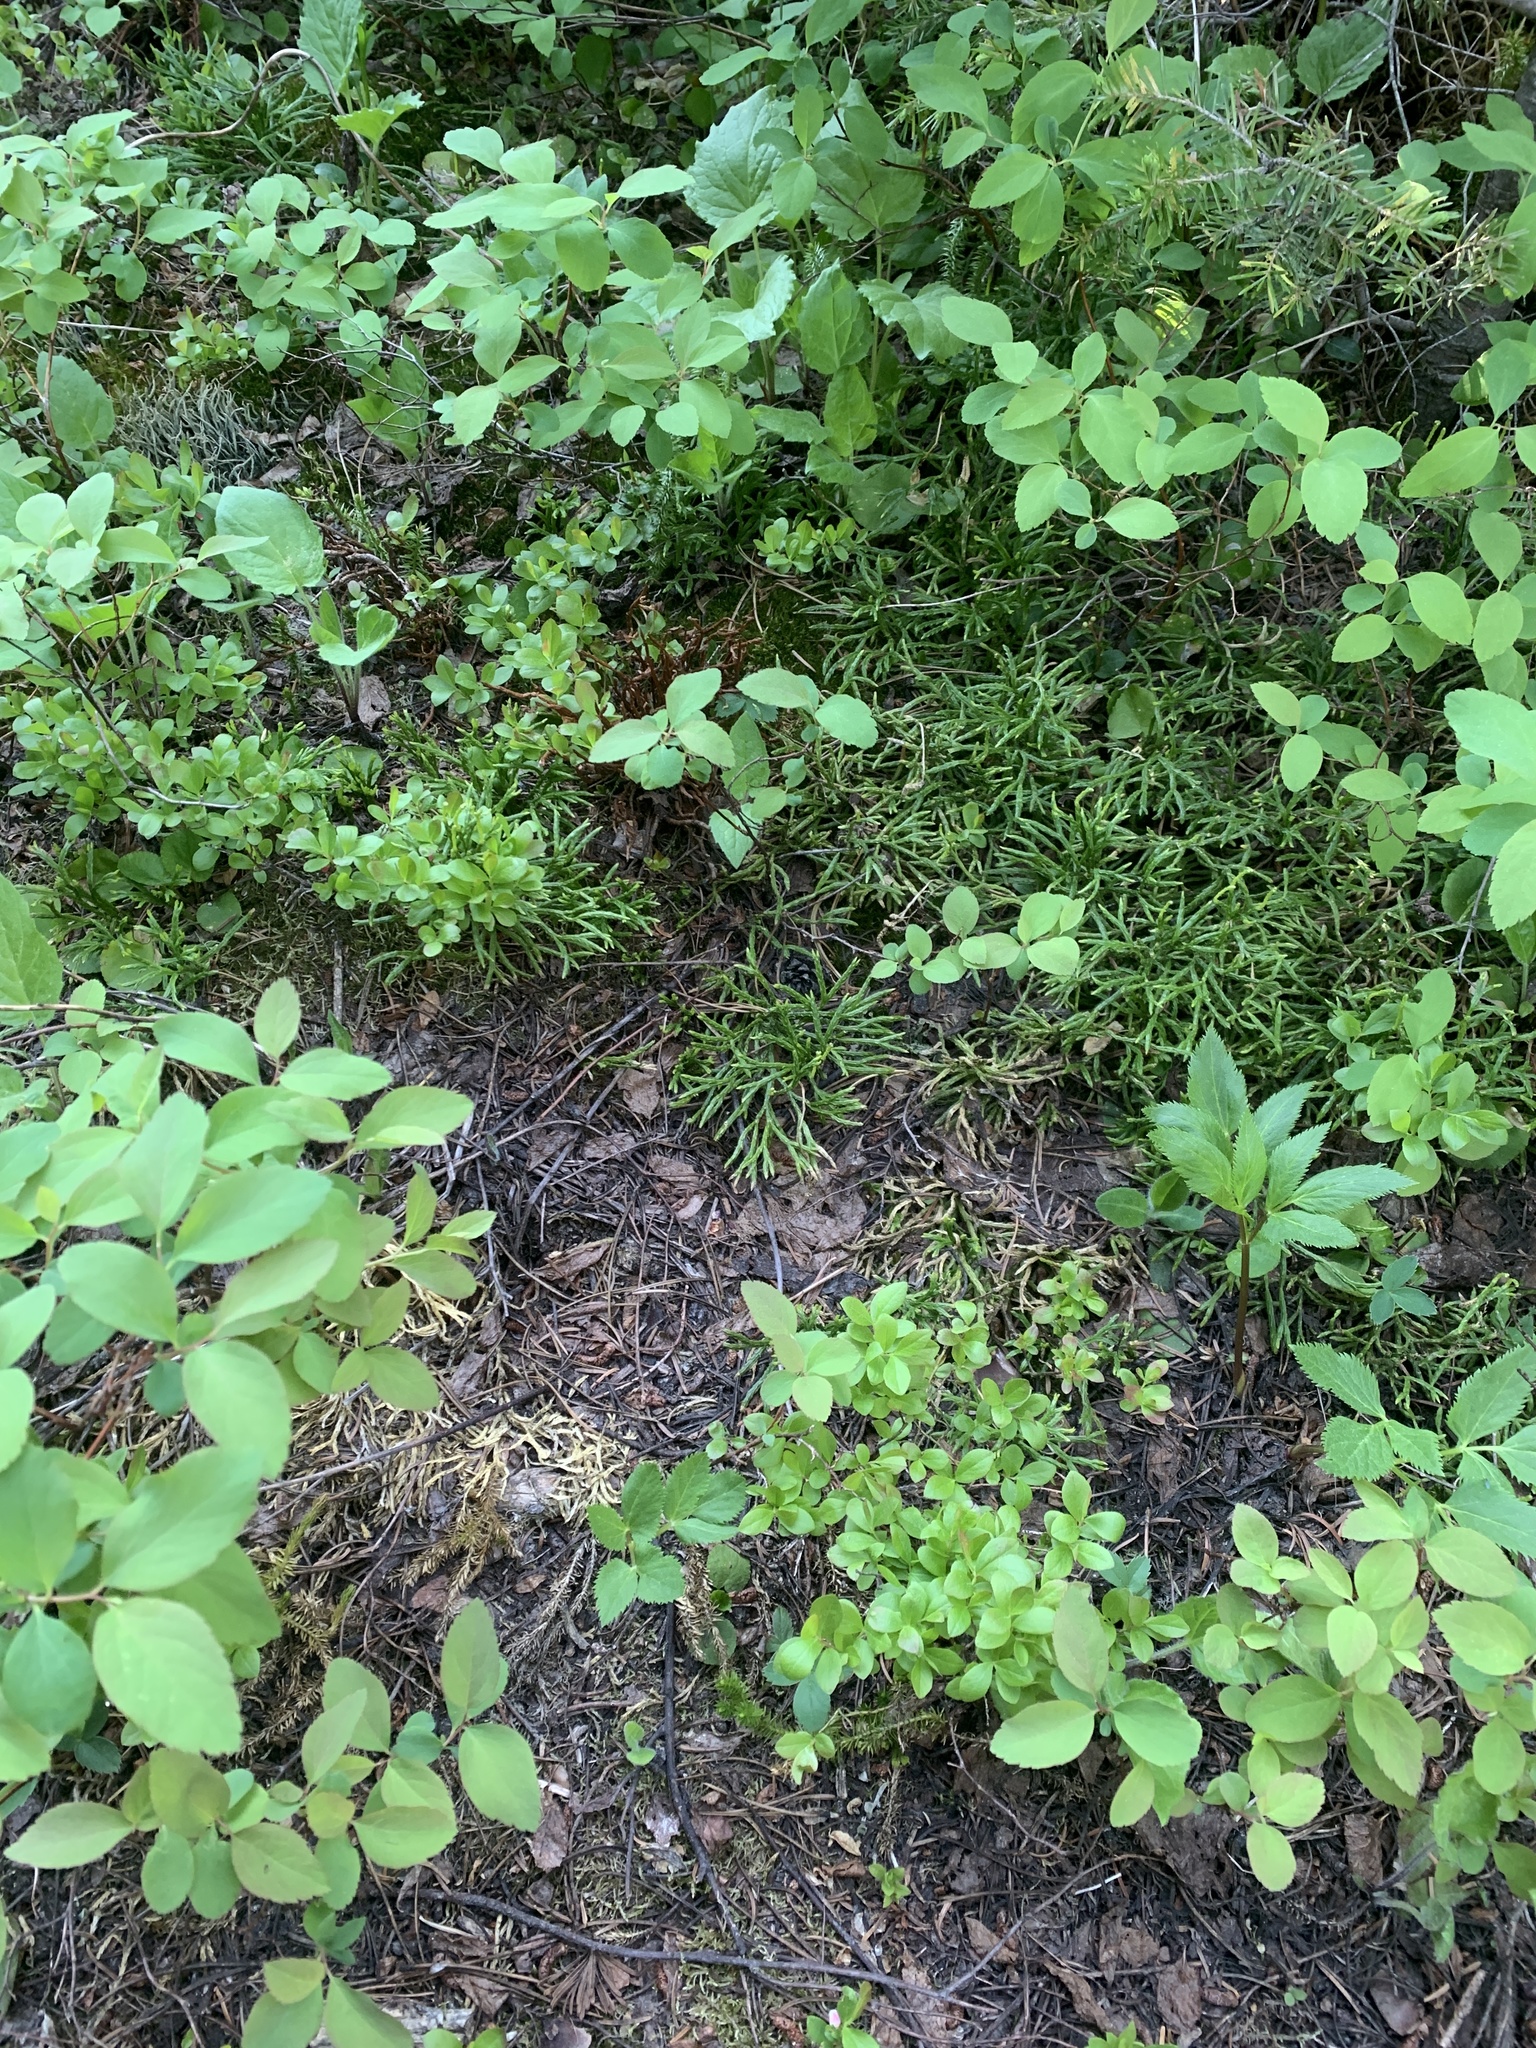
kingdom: Plantae
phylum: Tracheophyta
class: Lycopodiopsida
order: Lycopodiales
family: Lycopodiaceae
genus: Diphasiastrum
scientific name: Diphasiastrum complanatum
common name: Northern running-pine
